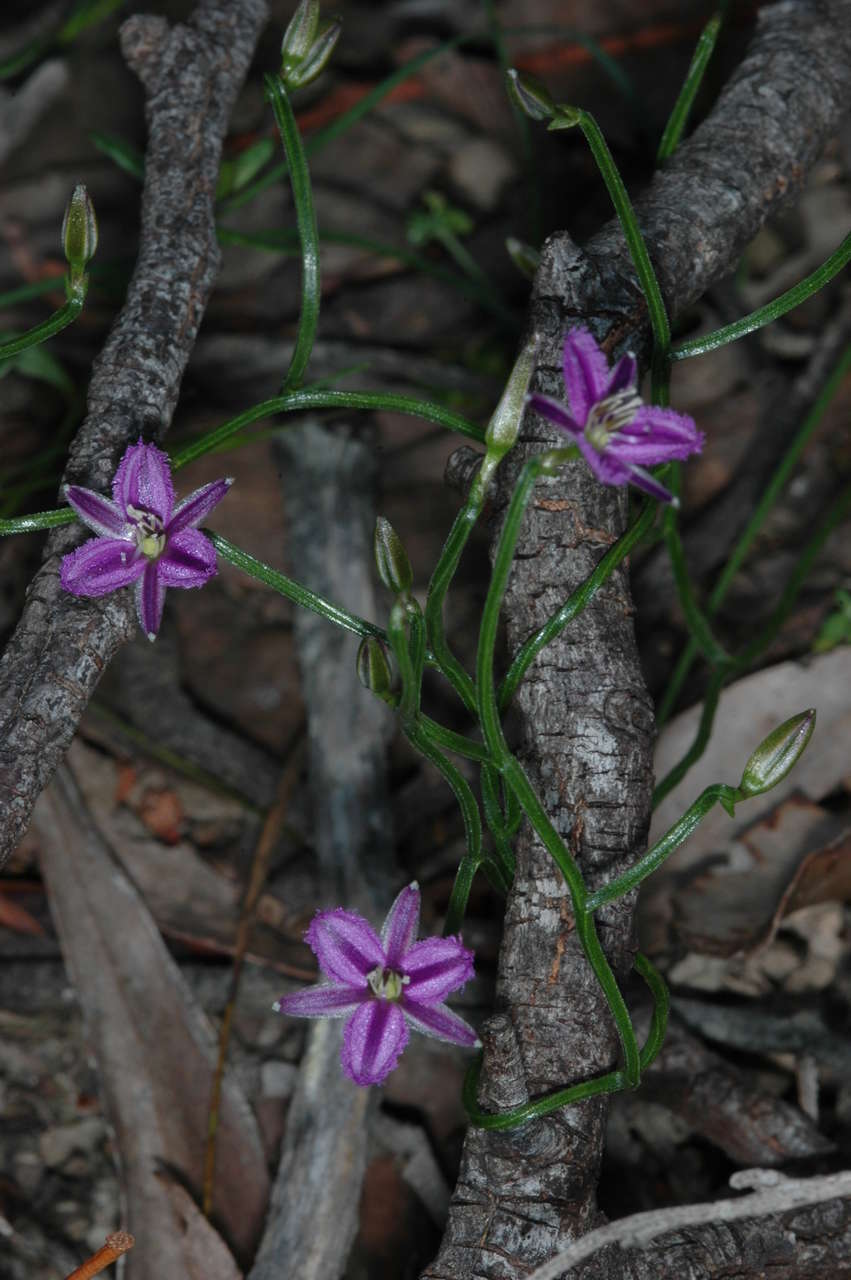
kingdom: Plantae
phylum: Tracheophyta
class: Liliopsida
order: Asparagales
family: Asparagaceae
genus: Thysanotus
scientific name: Thysanotus patersonii
